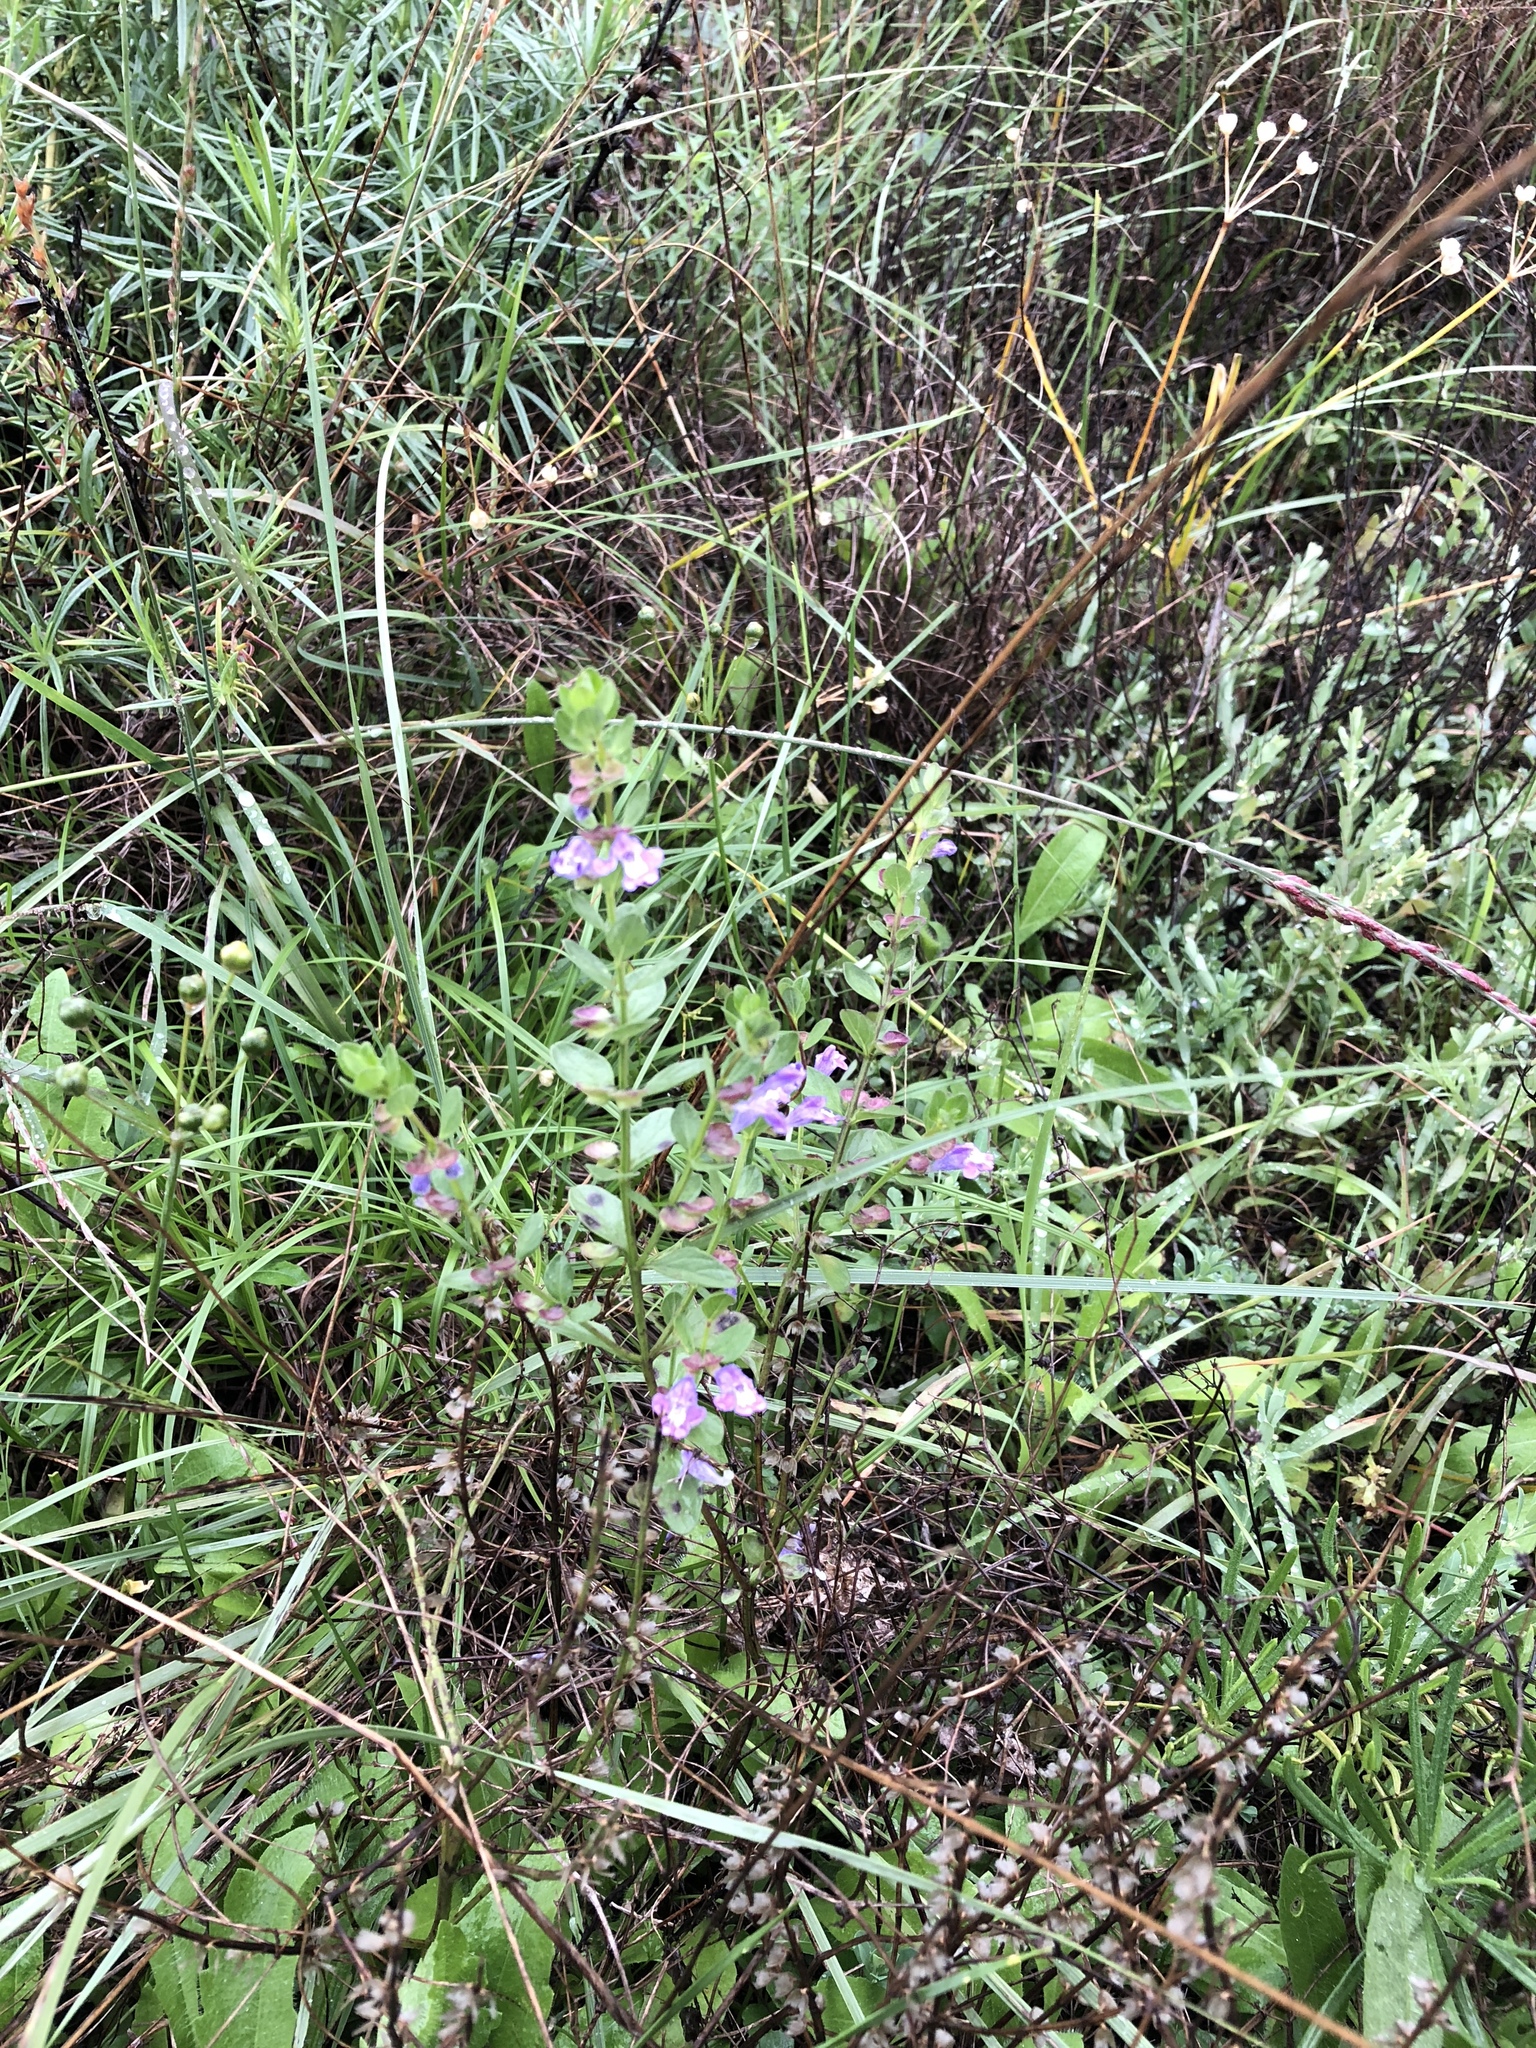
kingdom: Plantae
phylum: Tracheophyta
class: Magnoliopsida
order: Lamiales
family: Lamiaceae
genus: Scutellaria
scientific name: Scutellaria drummondii
